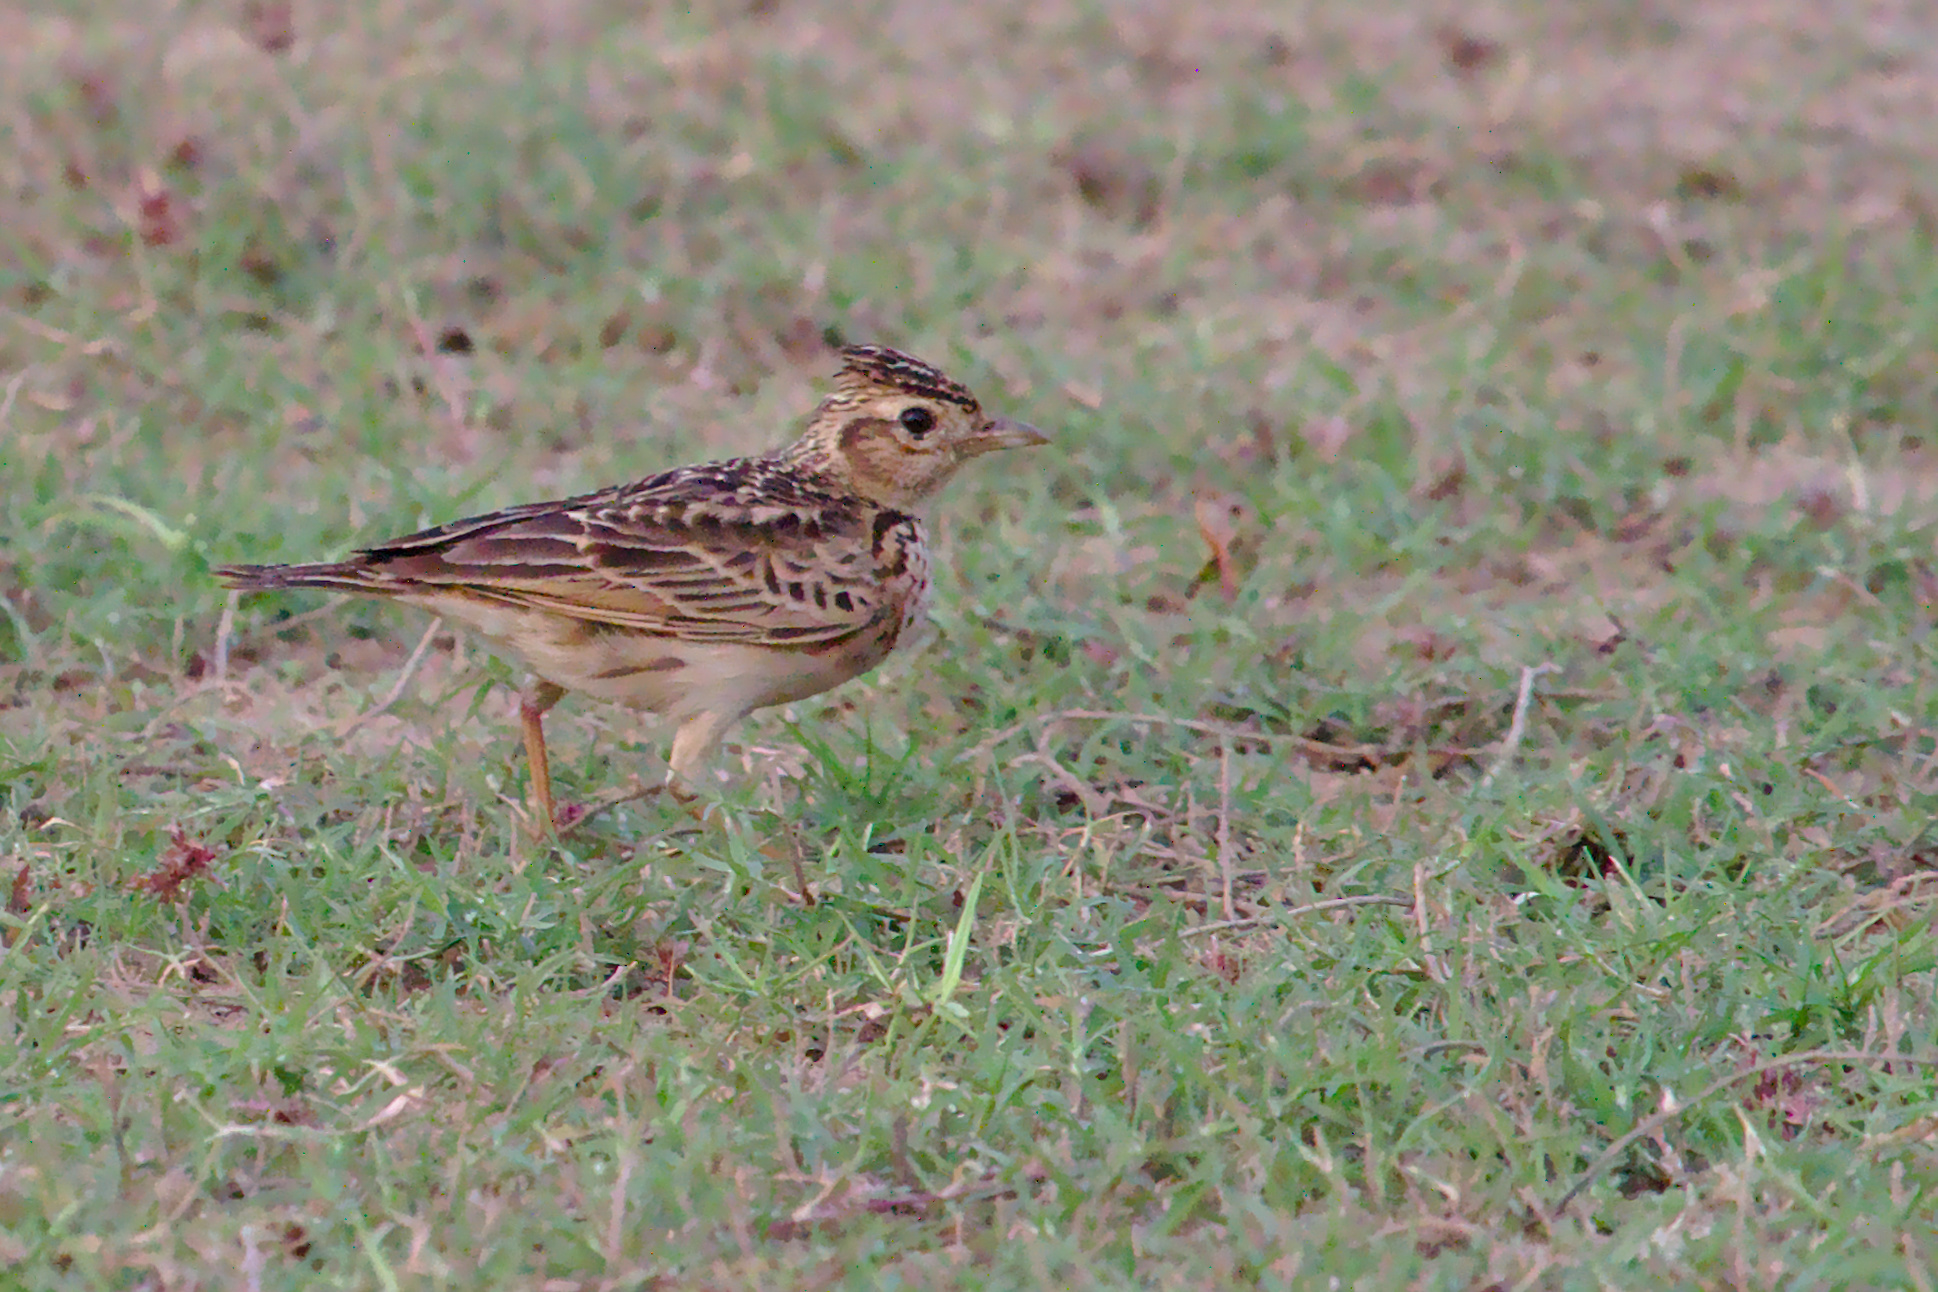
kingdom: Animalia
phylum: Chordata
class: Aves
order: Passeriformes
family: Alaudidae
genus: Alauda
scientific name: Alauda gulgula
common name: Oriental skylark
